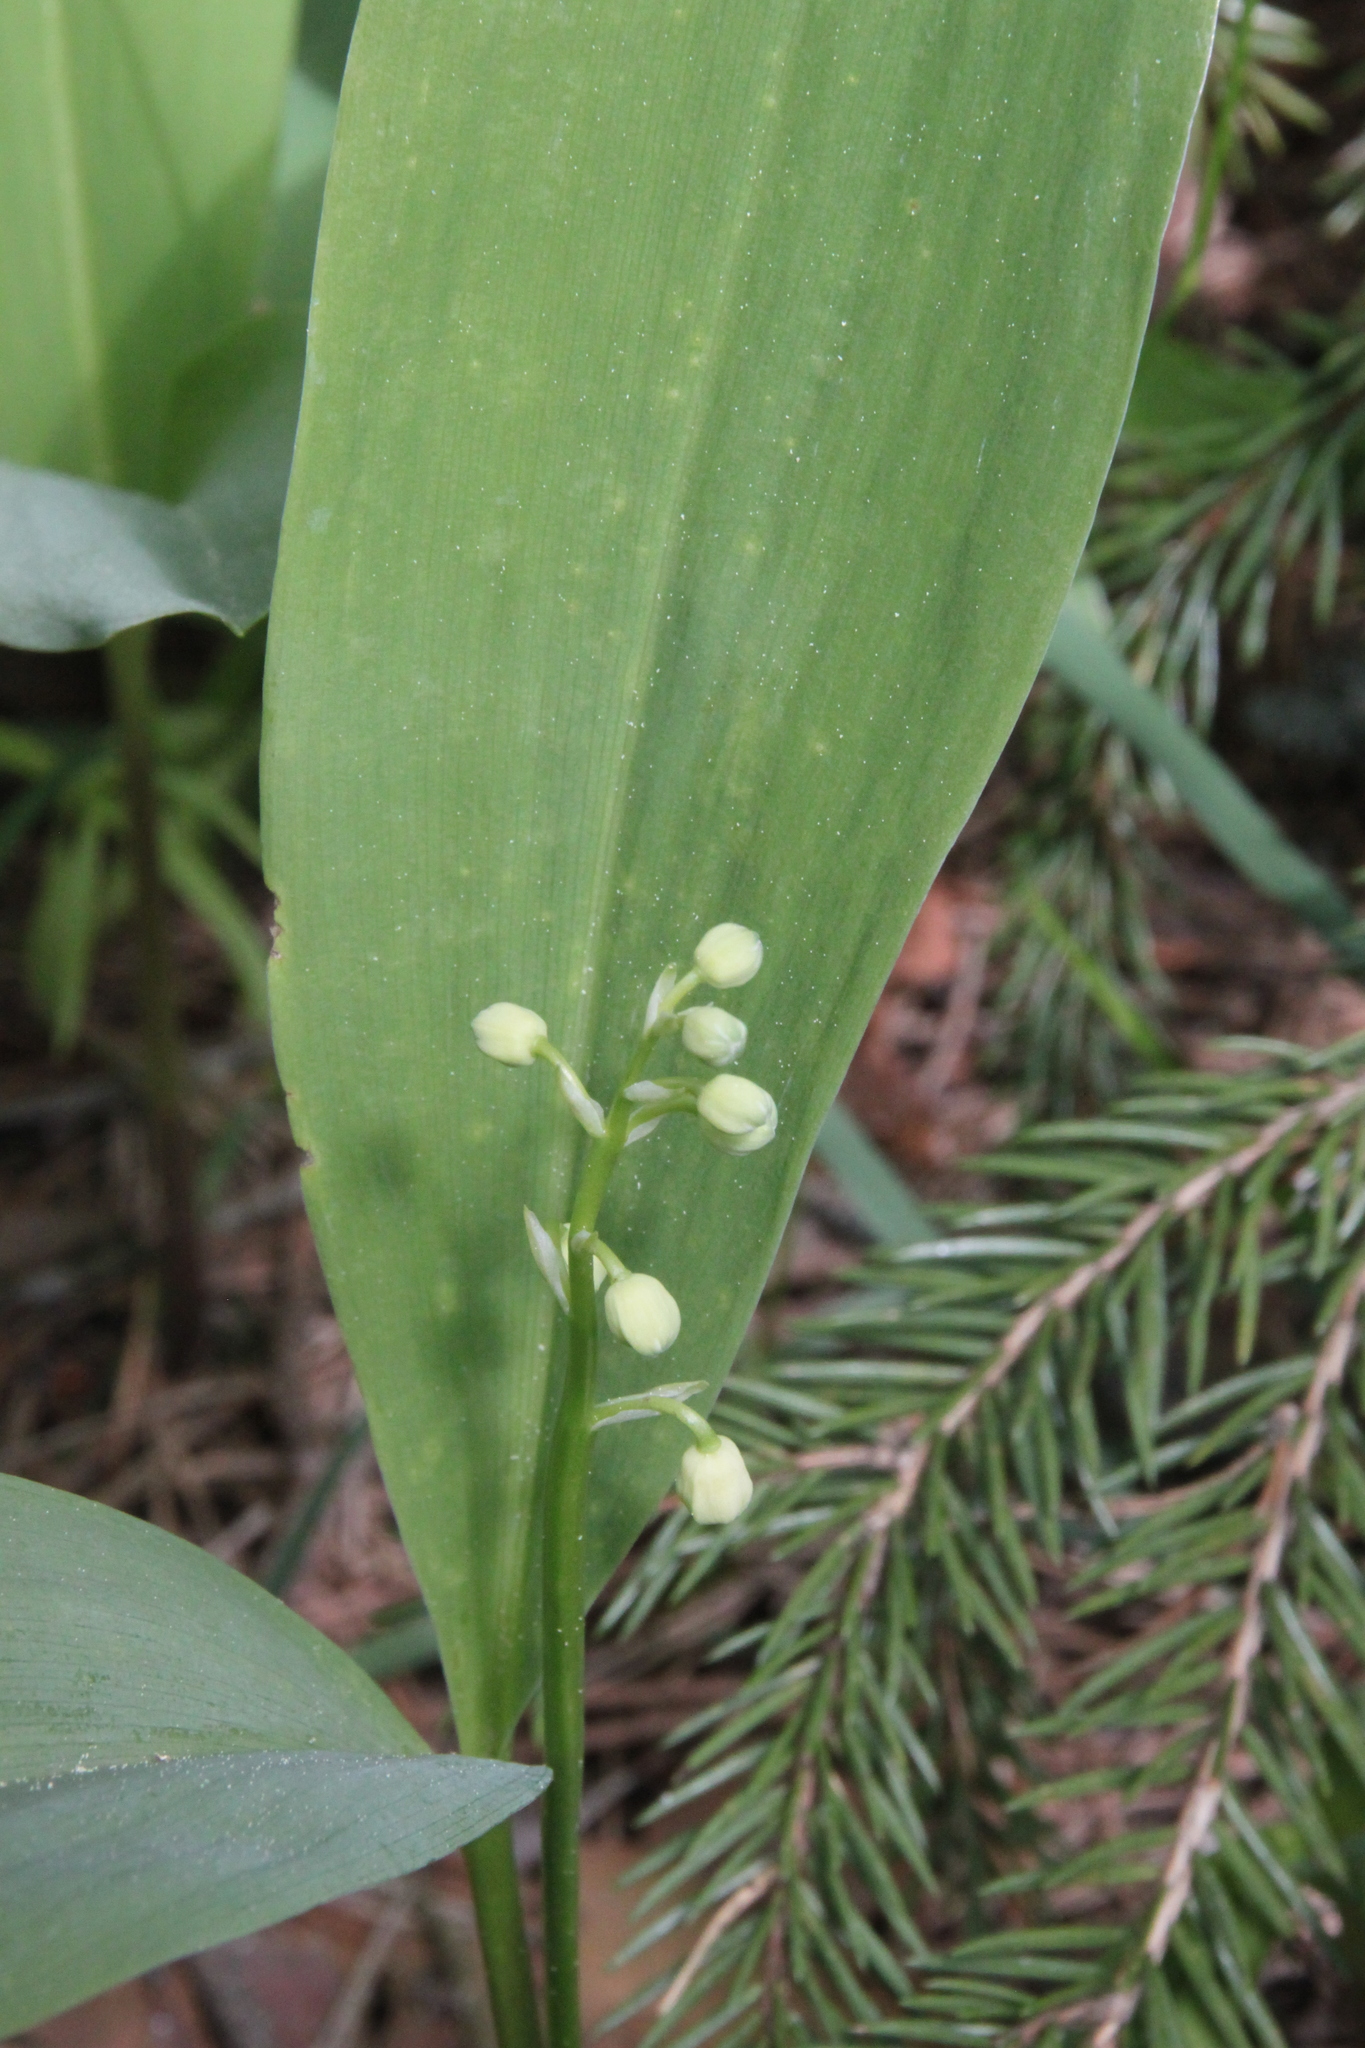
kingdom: Plantae
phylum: Tracheophyta
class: Liliopsida
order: Asparagales
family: Asparagaceae
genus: Convallaria
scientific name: Convallaria majalis
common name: Lily-of-the-valley
